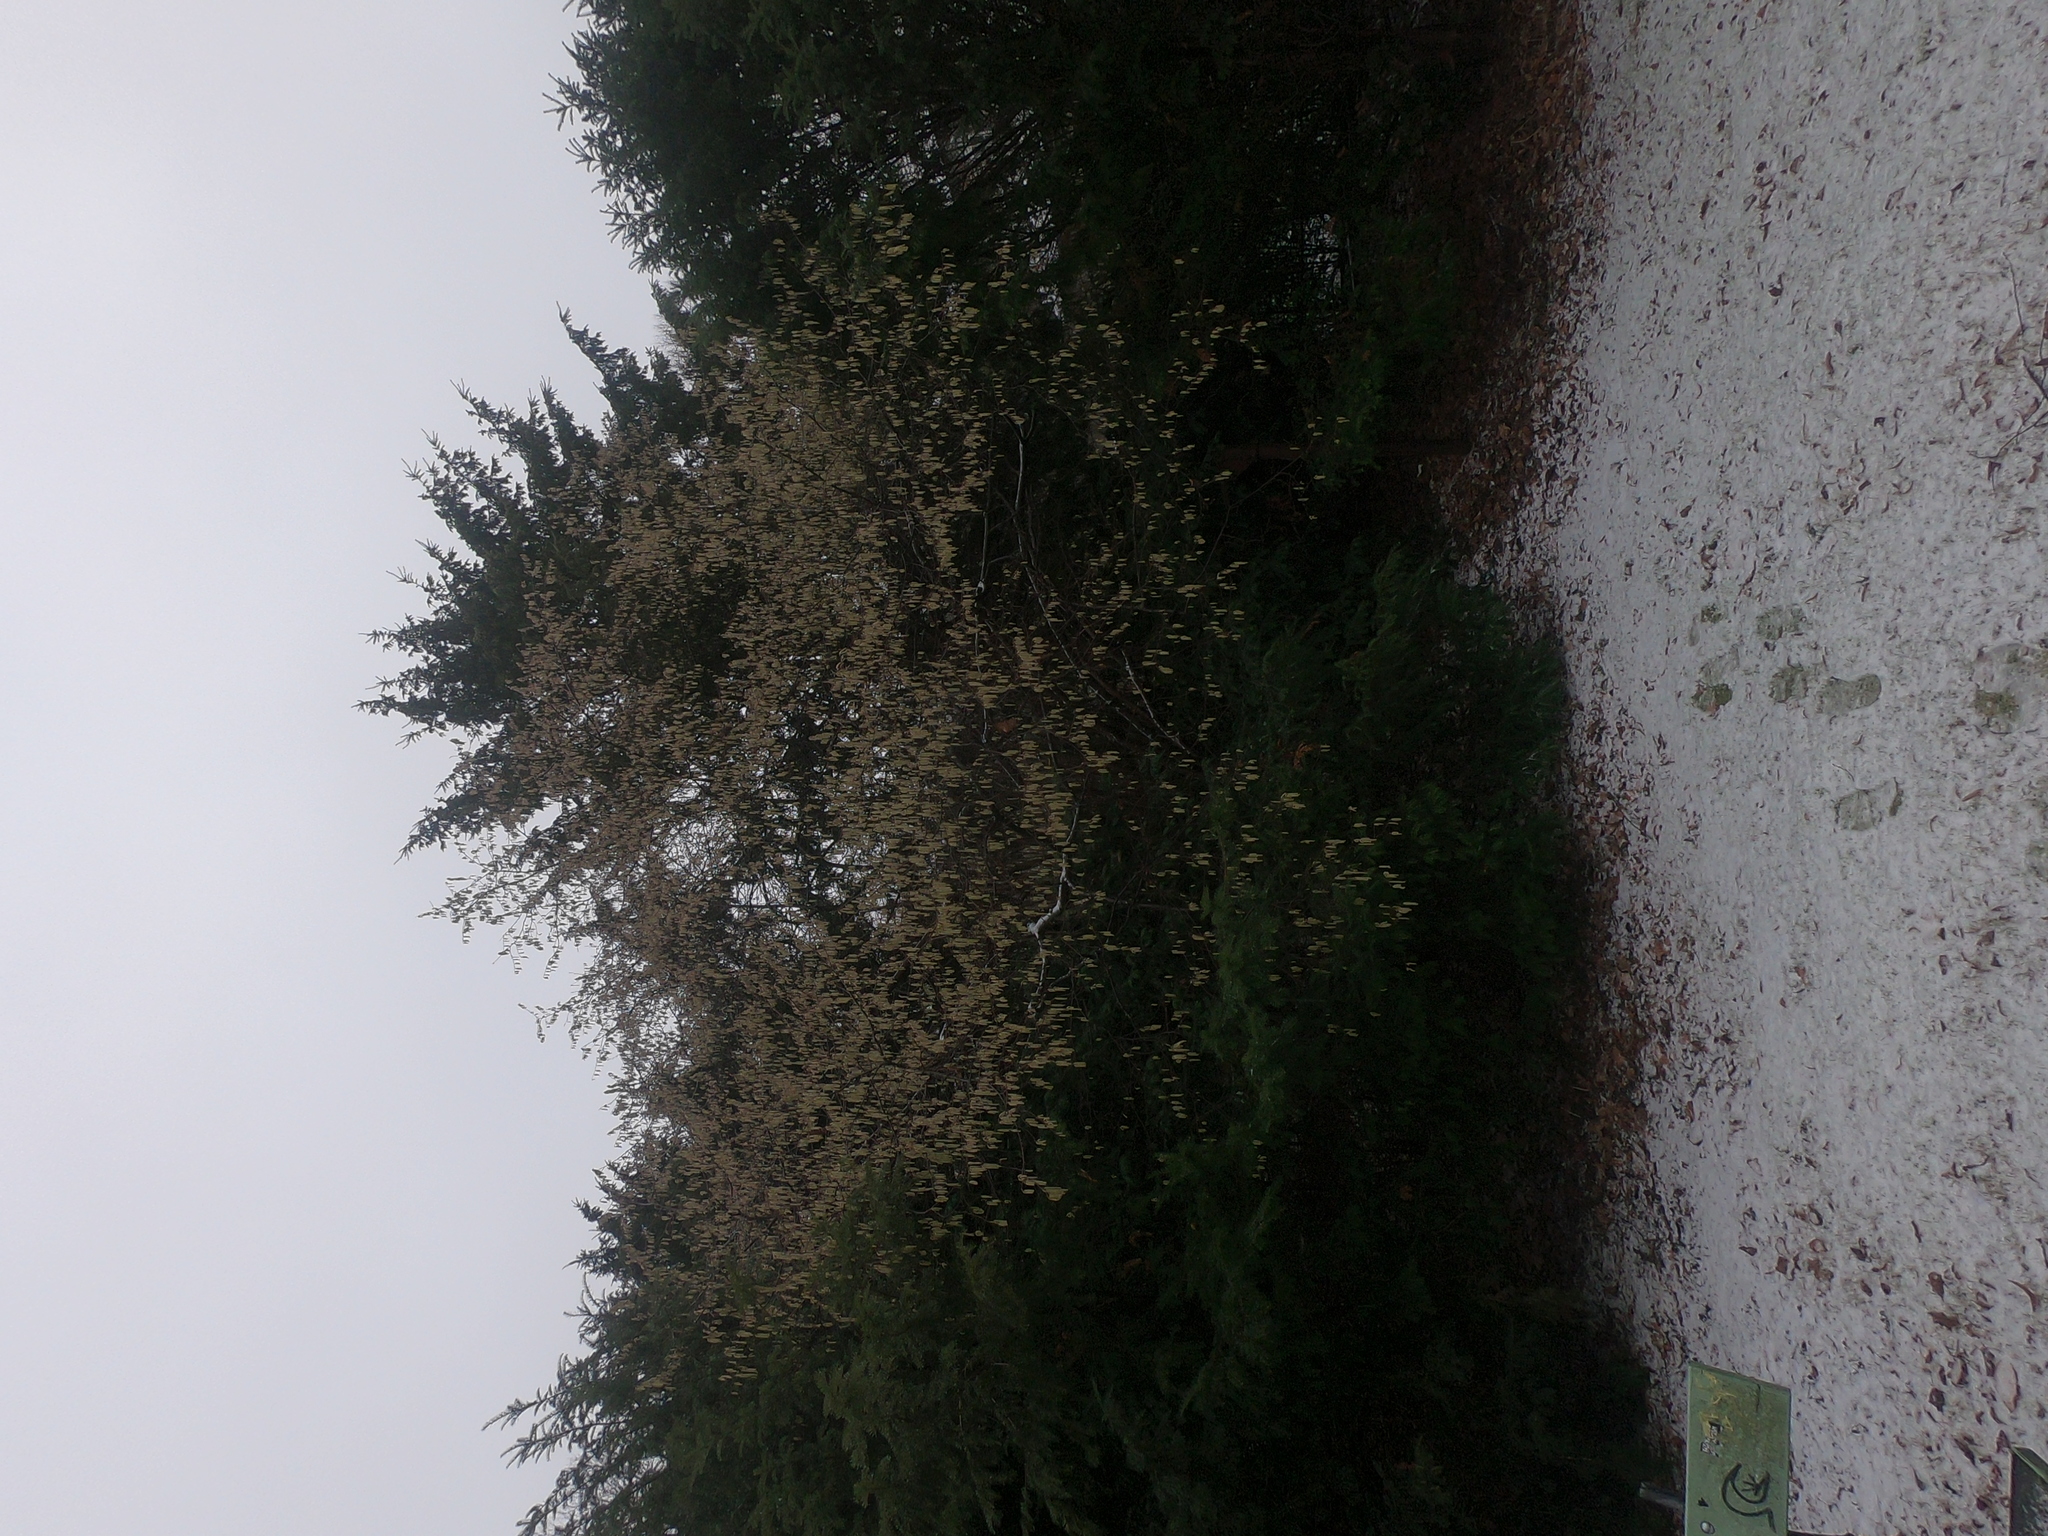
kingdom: Plantae
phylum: Tracheophyta
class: Magnoliopsida
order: Fagales
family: Betulaceae
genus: Corylus
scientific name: Corylus avellana
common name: European hazel
